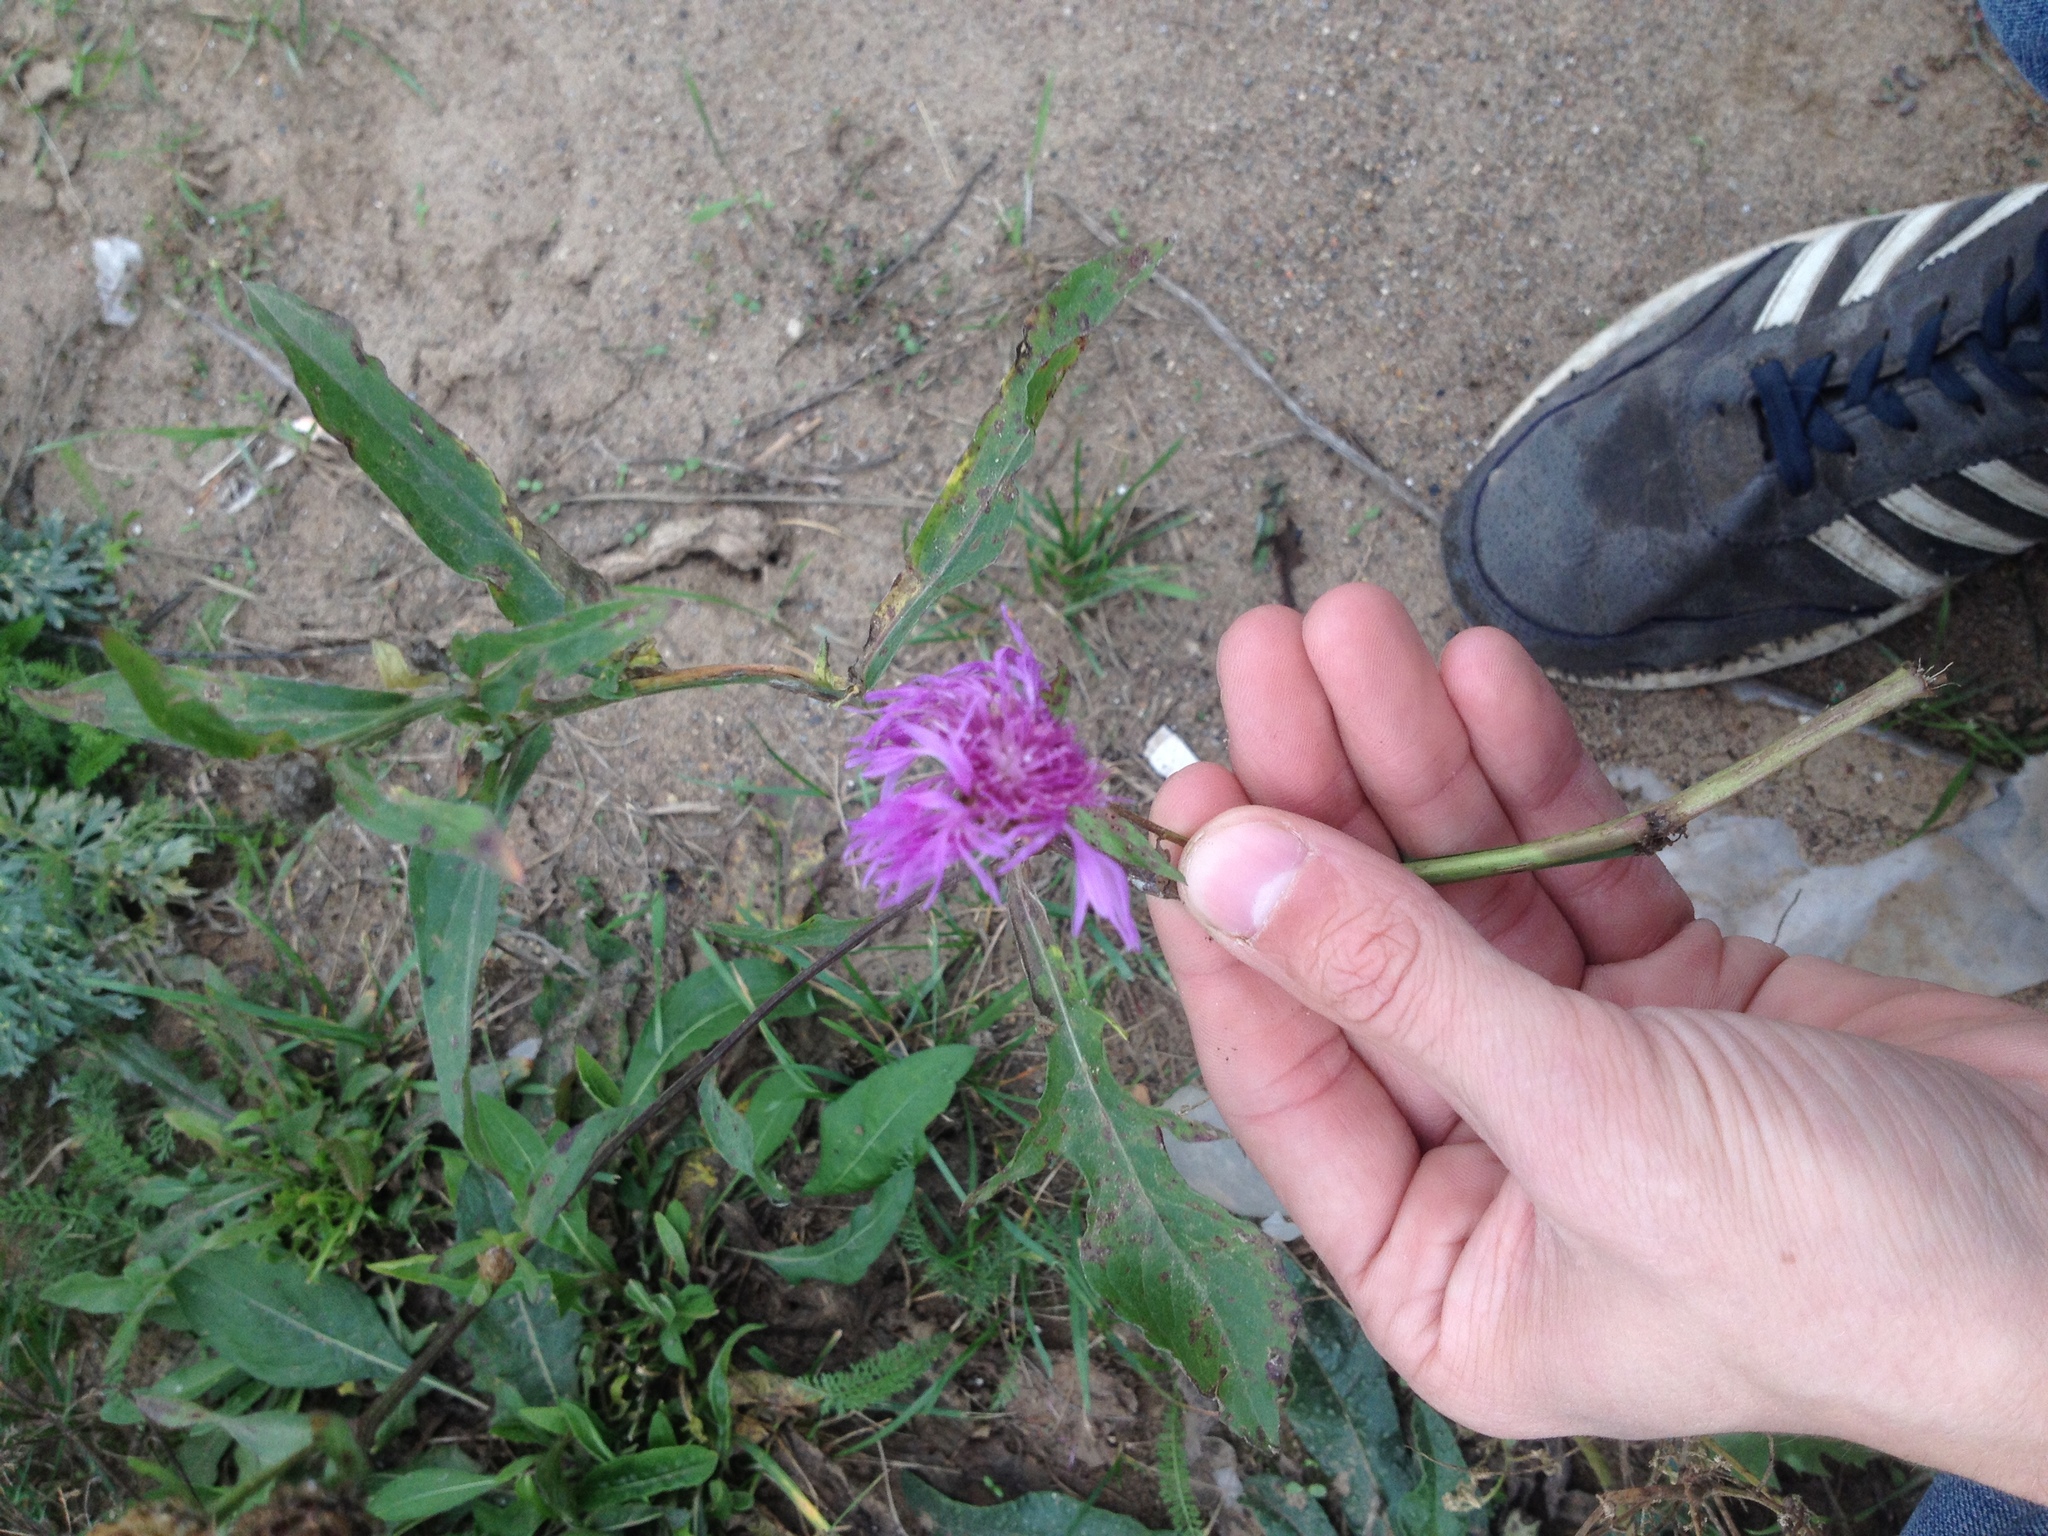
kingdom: Plantae
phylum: Tracheophyta
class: Magnoliopsida
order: Asterales
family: Asteraceae
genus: Centaurea
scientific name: Centaurea jacea
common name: Brown knapweed
